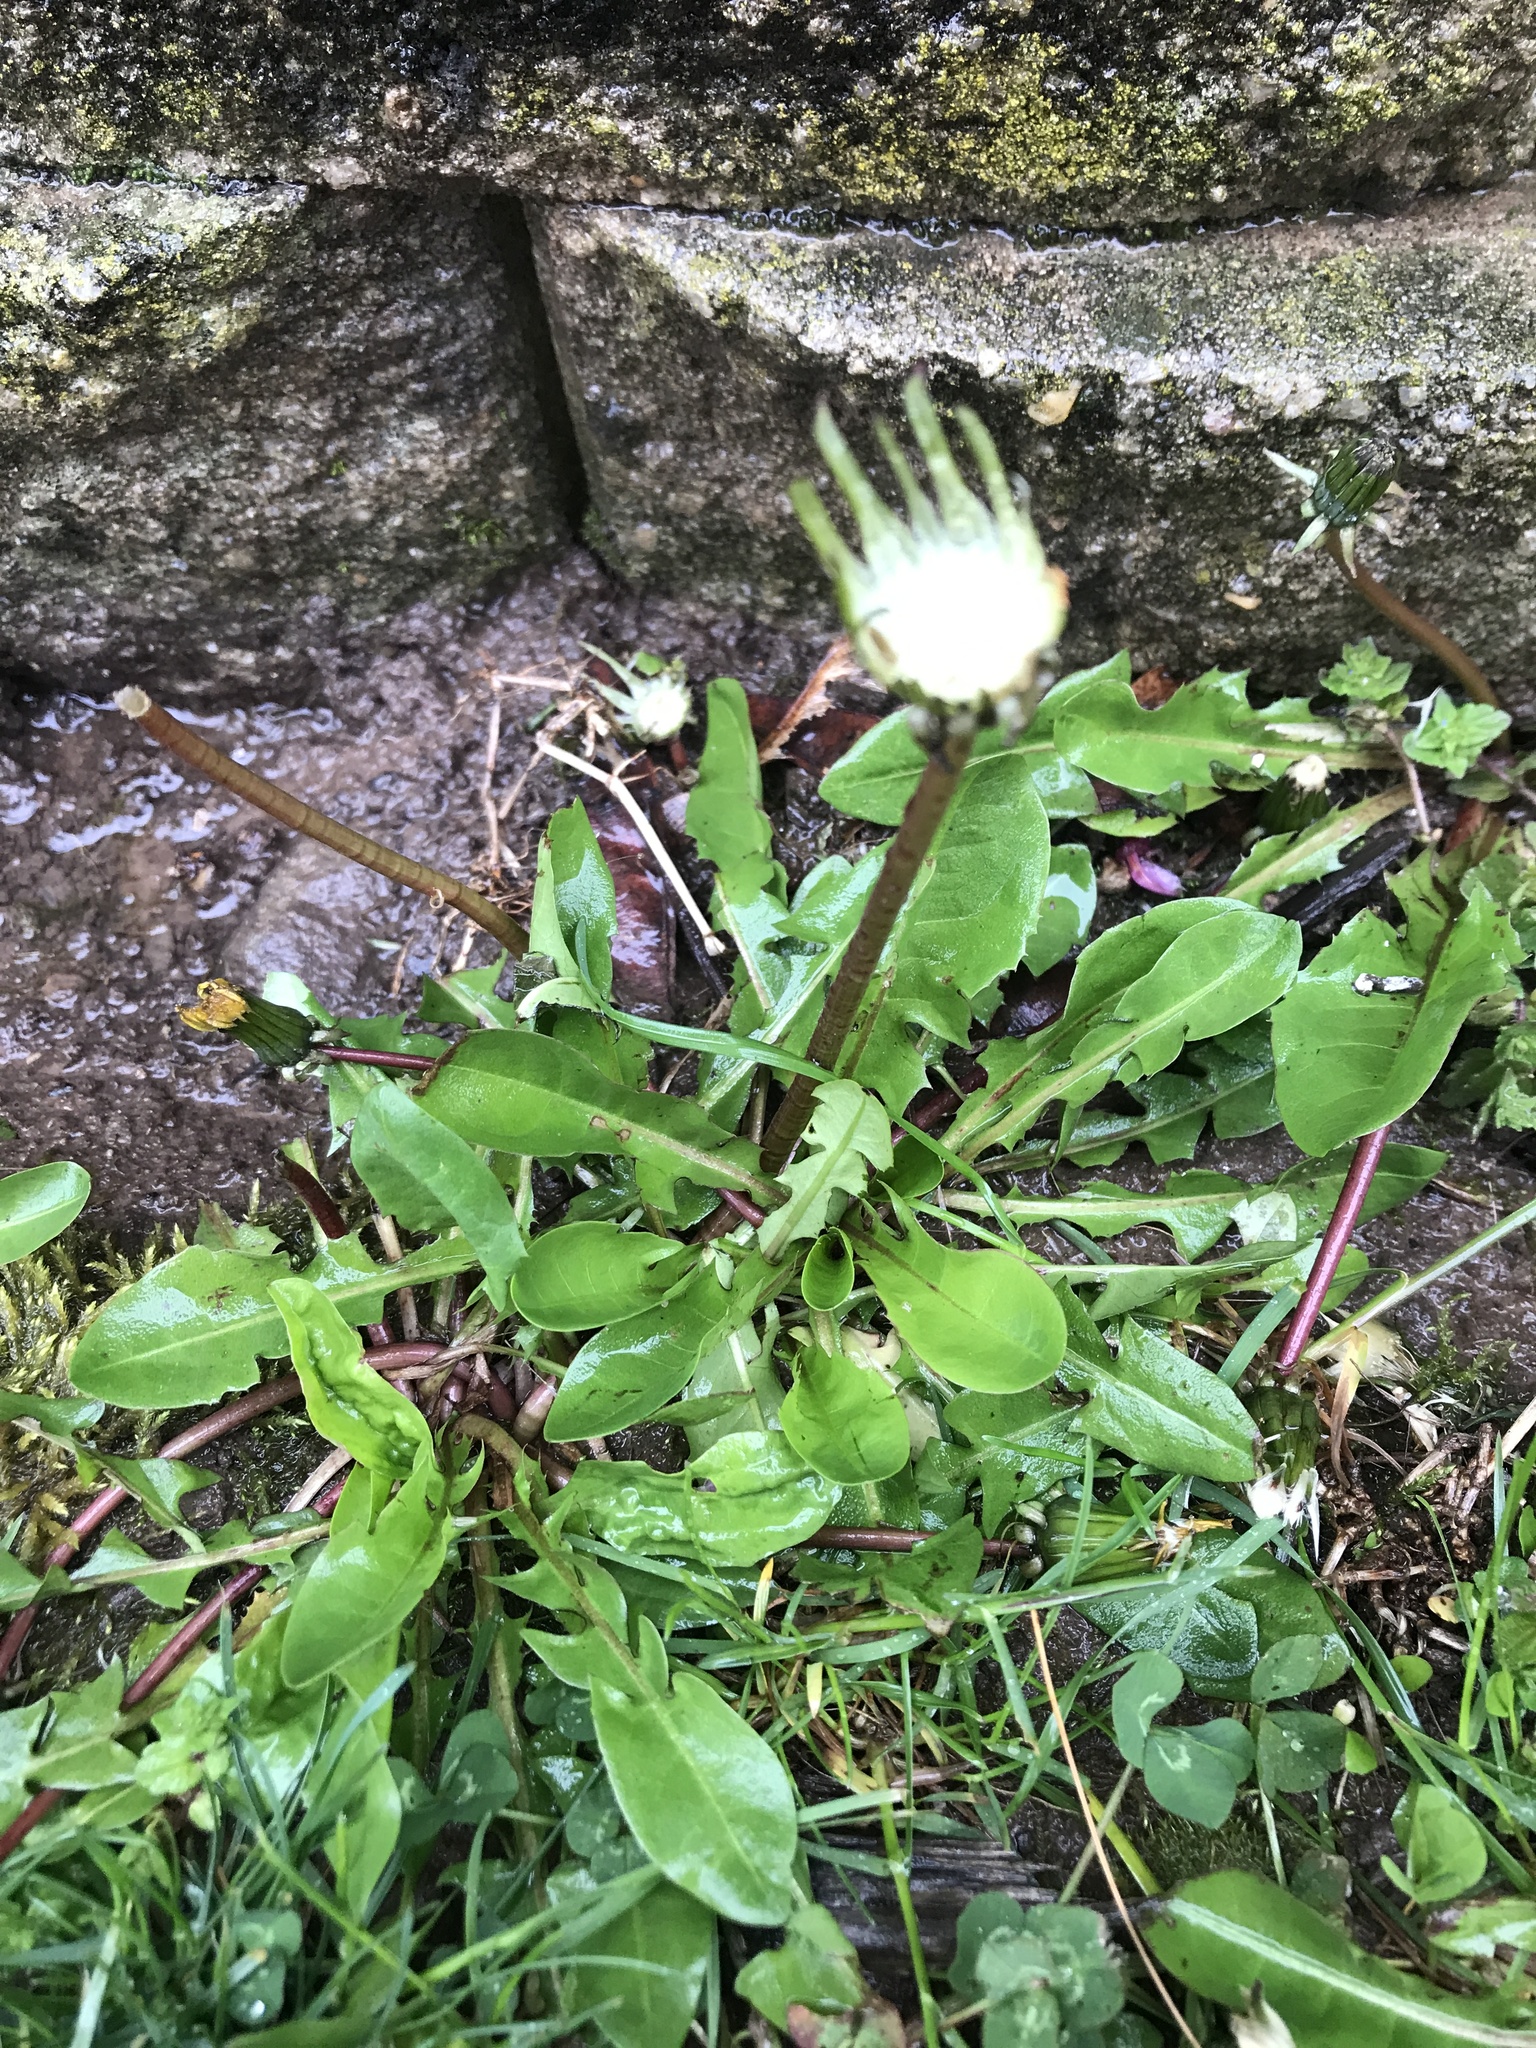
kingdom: Plantae
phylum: Tracheophyta
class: Magnoliopsida
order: Asterales
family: Asteraceae
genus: Taraxacum
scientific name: Taraxacum officinale
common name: Common dandelion
